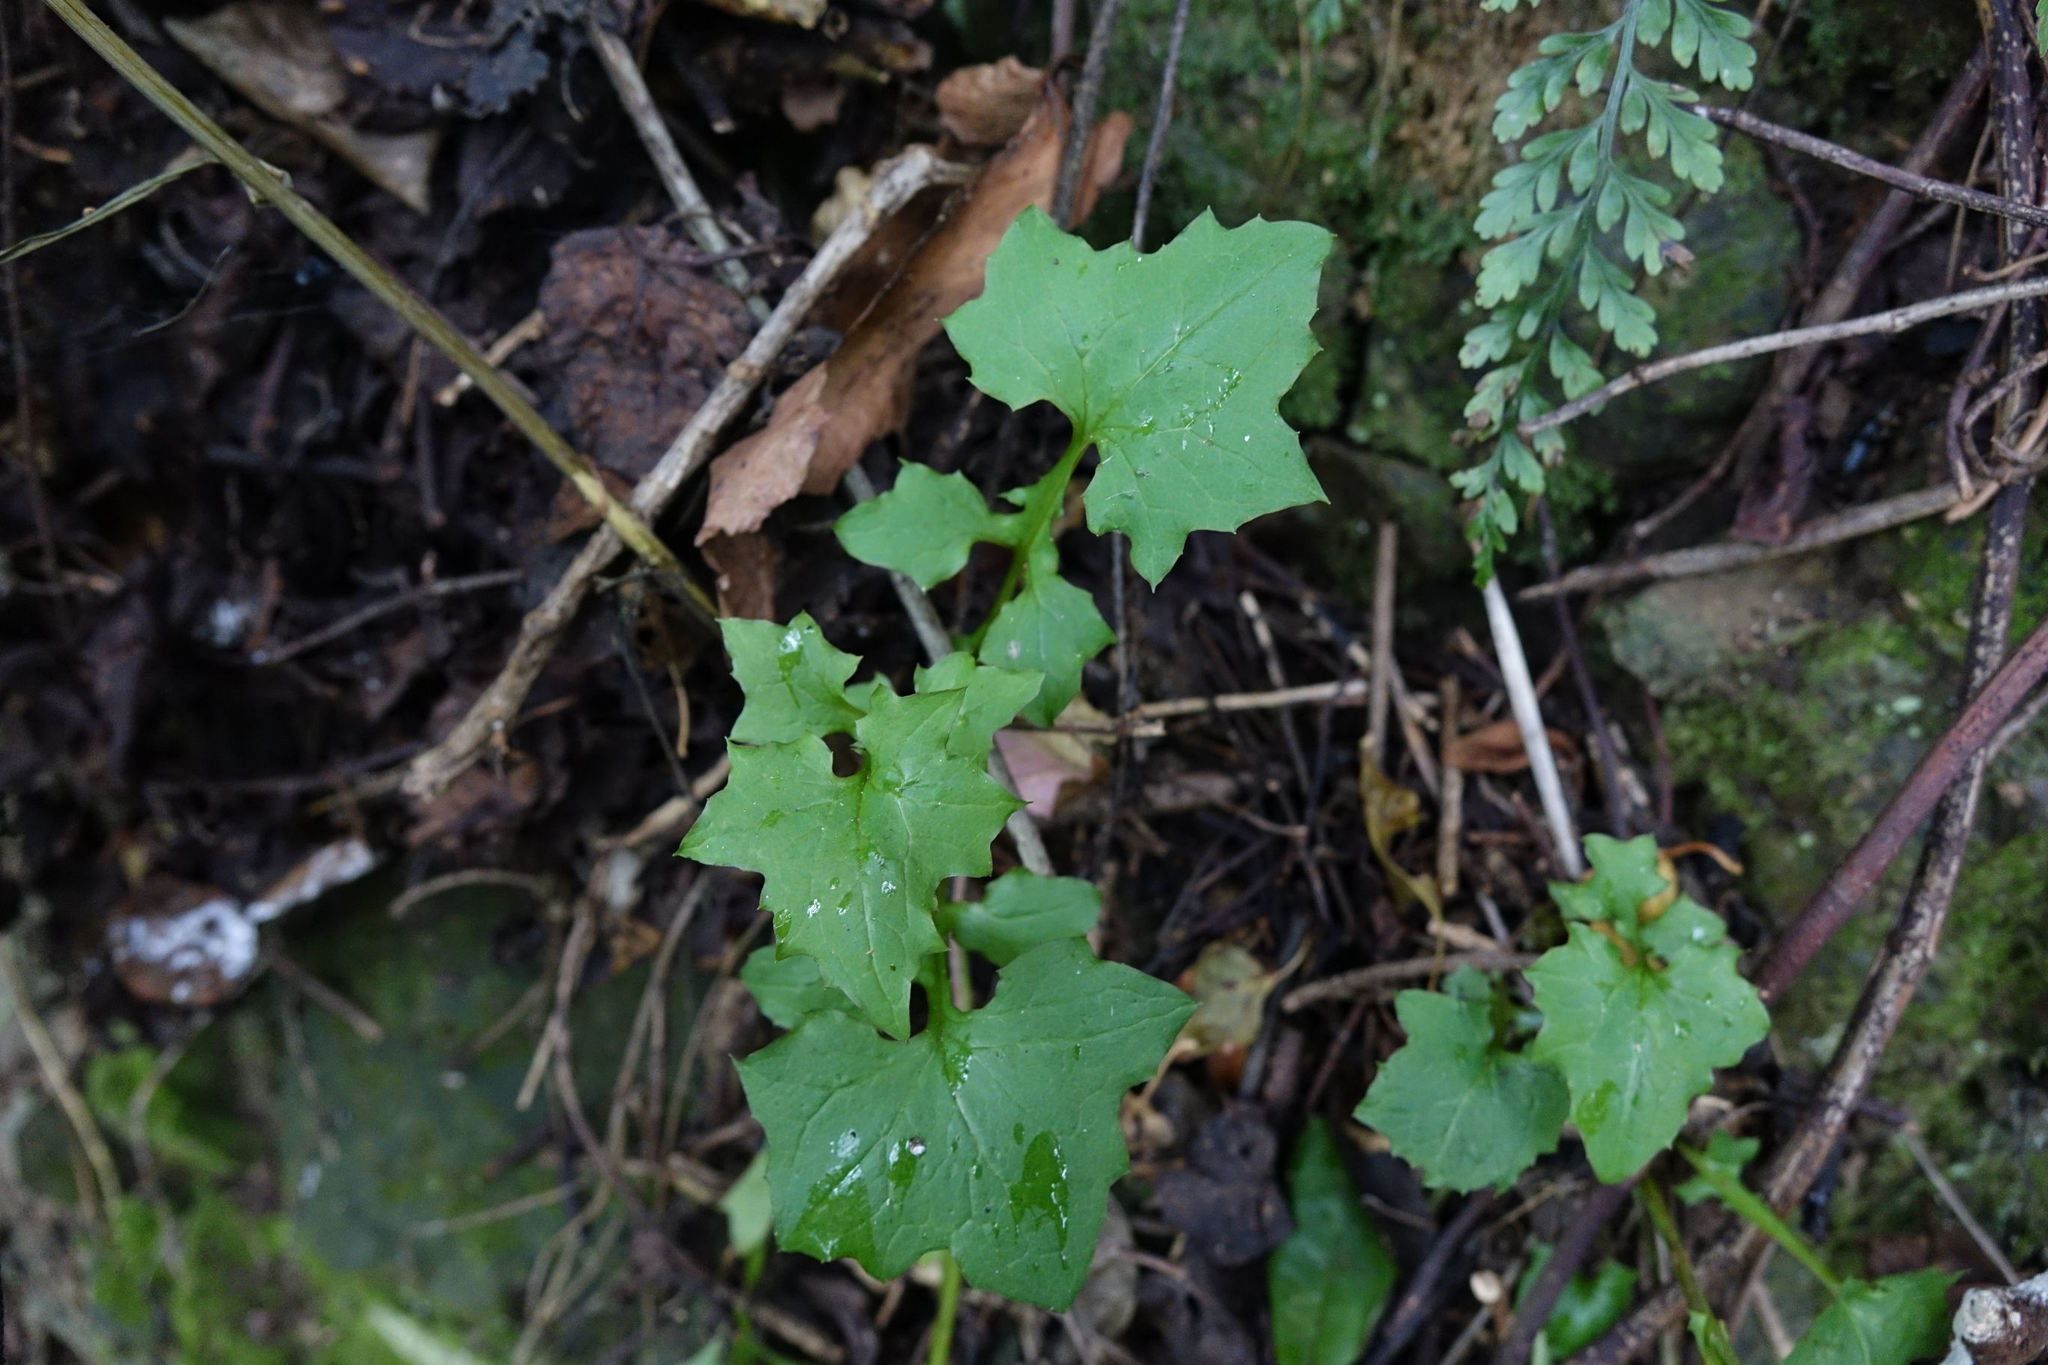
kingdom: Plantae
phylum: Tracheophyta
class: Magnoliopsida
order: Asterales
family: Asteraceae
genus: Mycelis
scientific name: Mycelis muralis
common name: Wall lettuce
